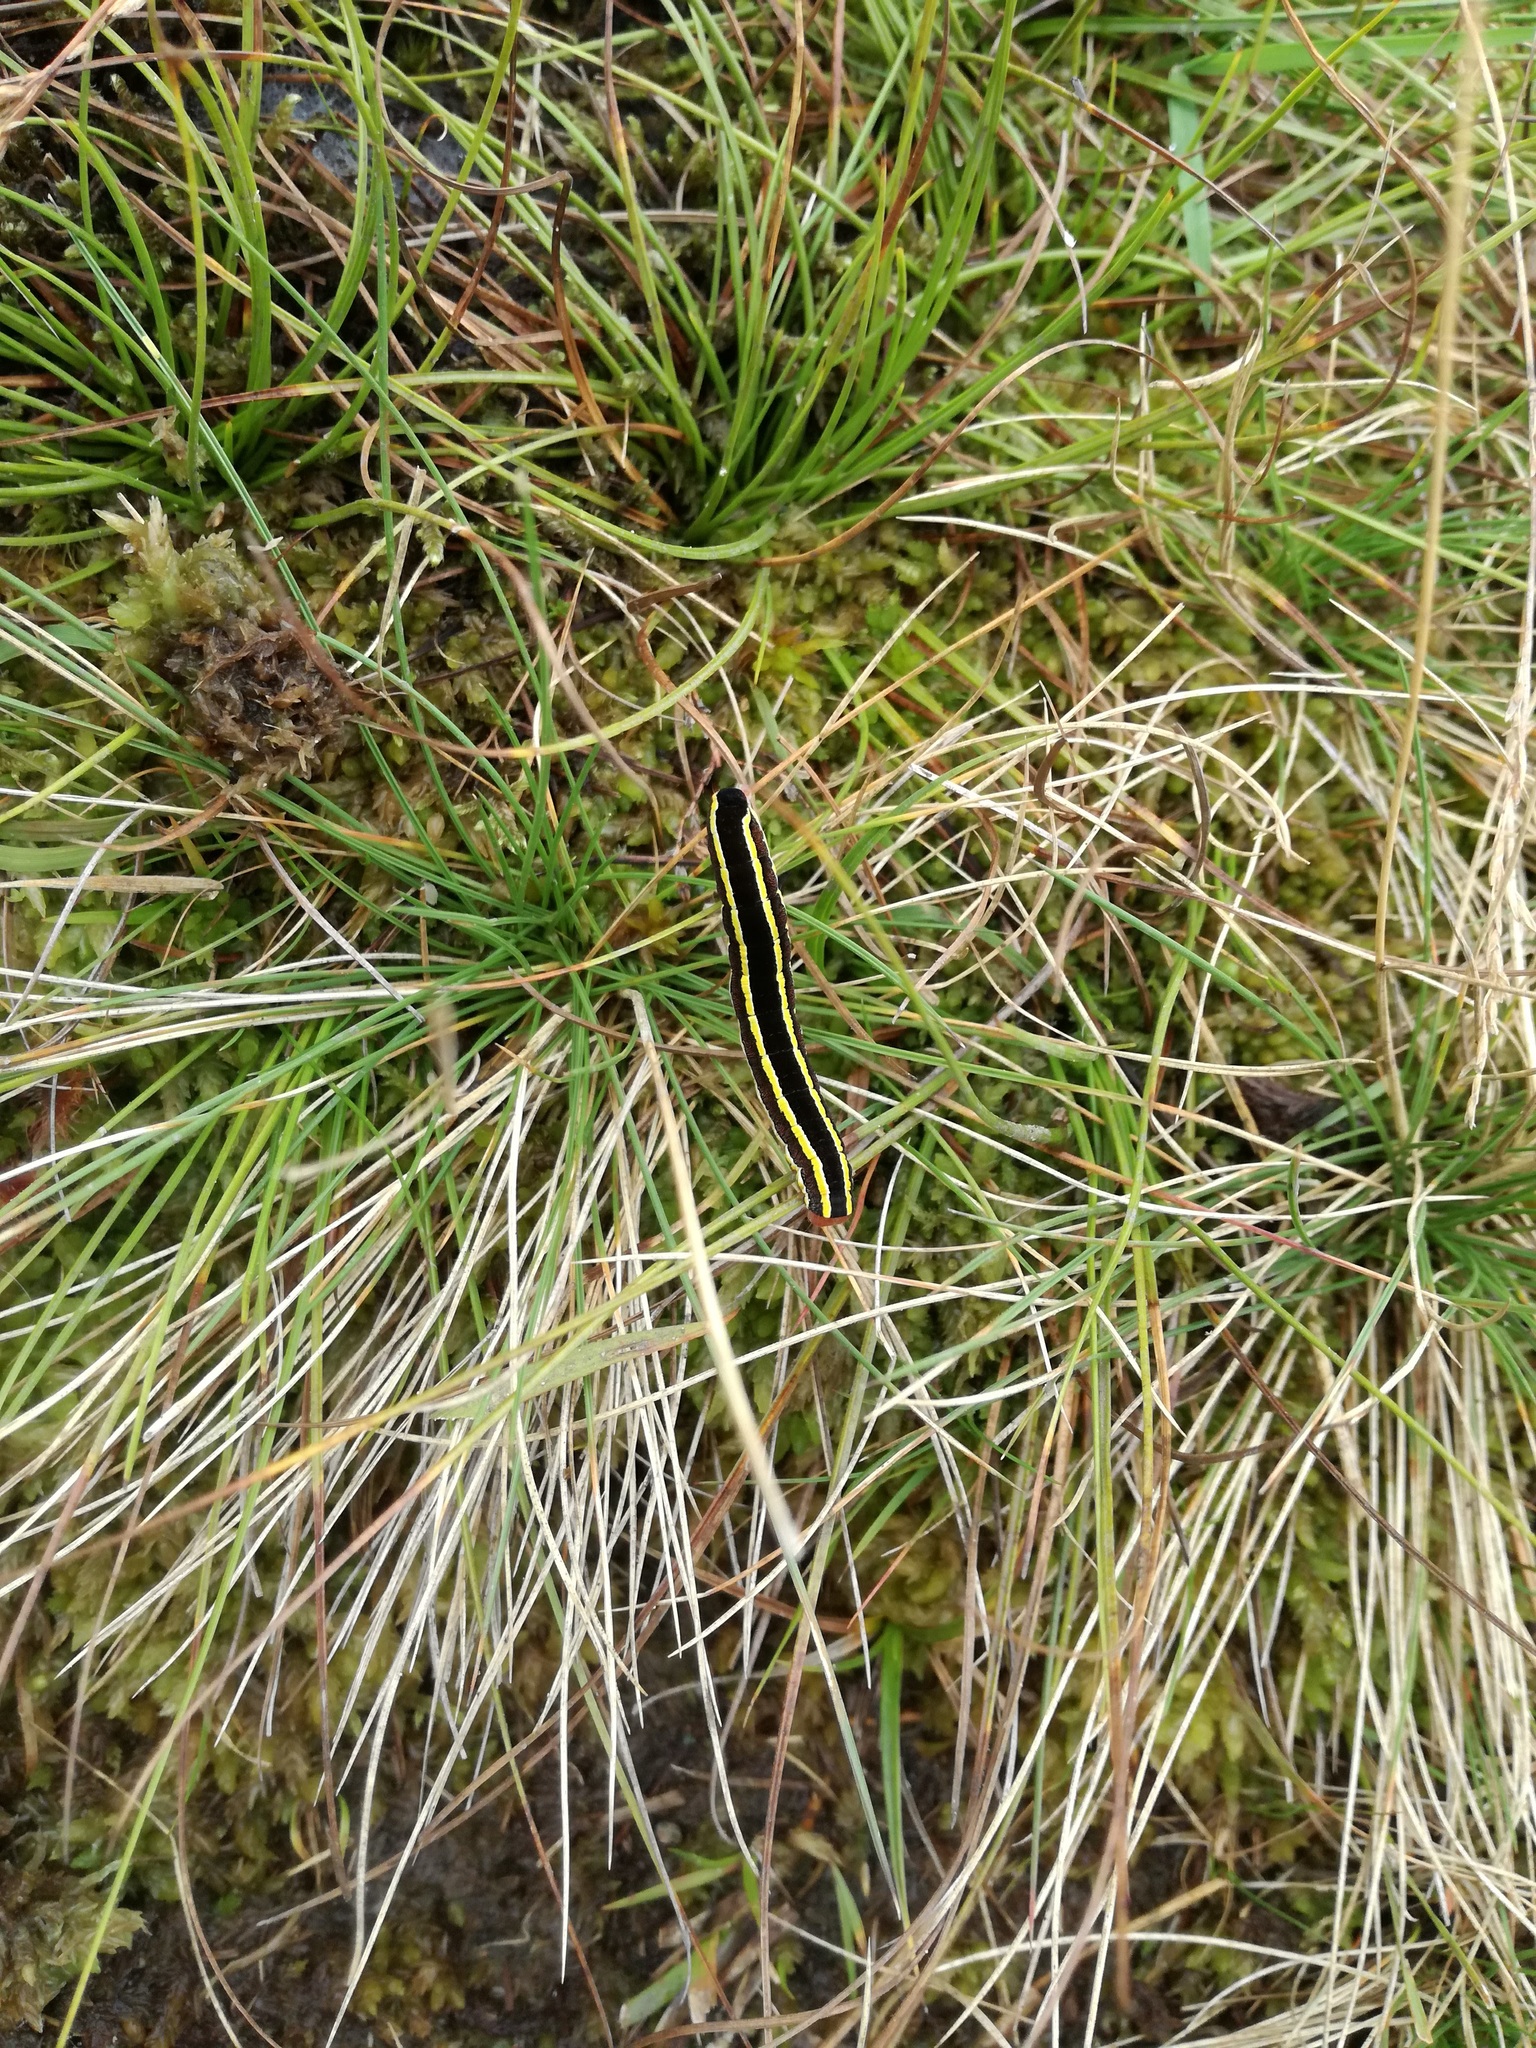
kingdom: Animalia
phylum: Arthropoda
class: Insecta
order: Lepidoptera
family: Noctuidae
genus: Ceramica
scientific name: Ceramica pisi
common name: Broom moth
